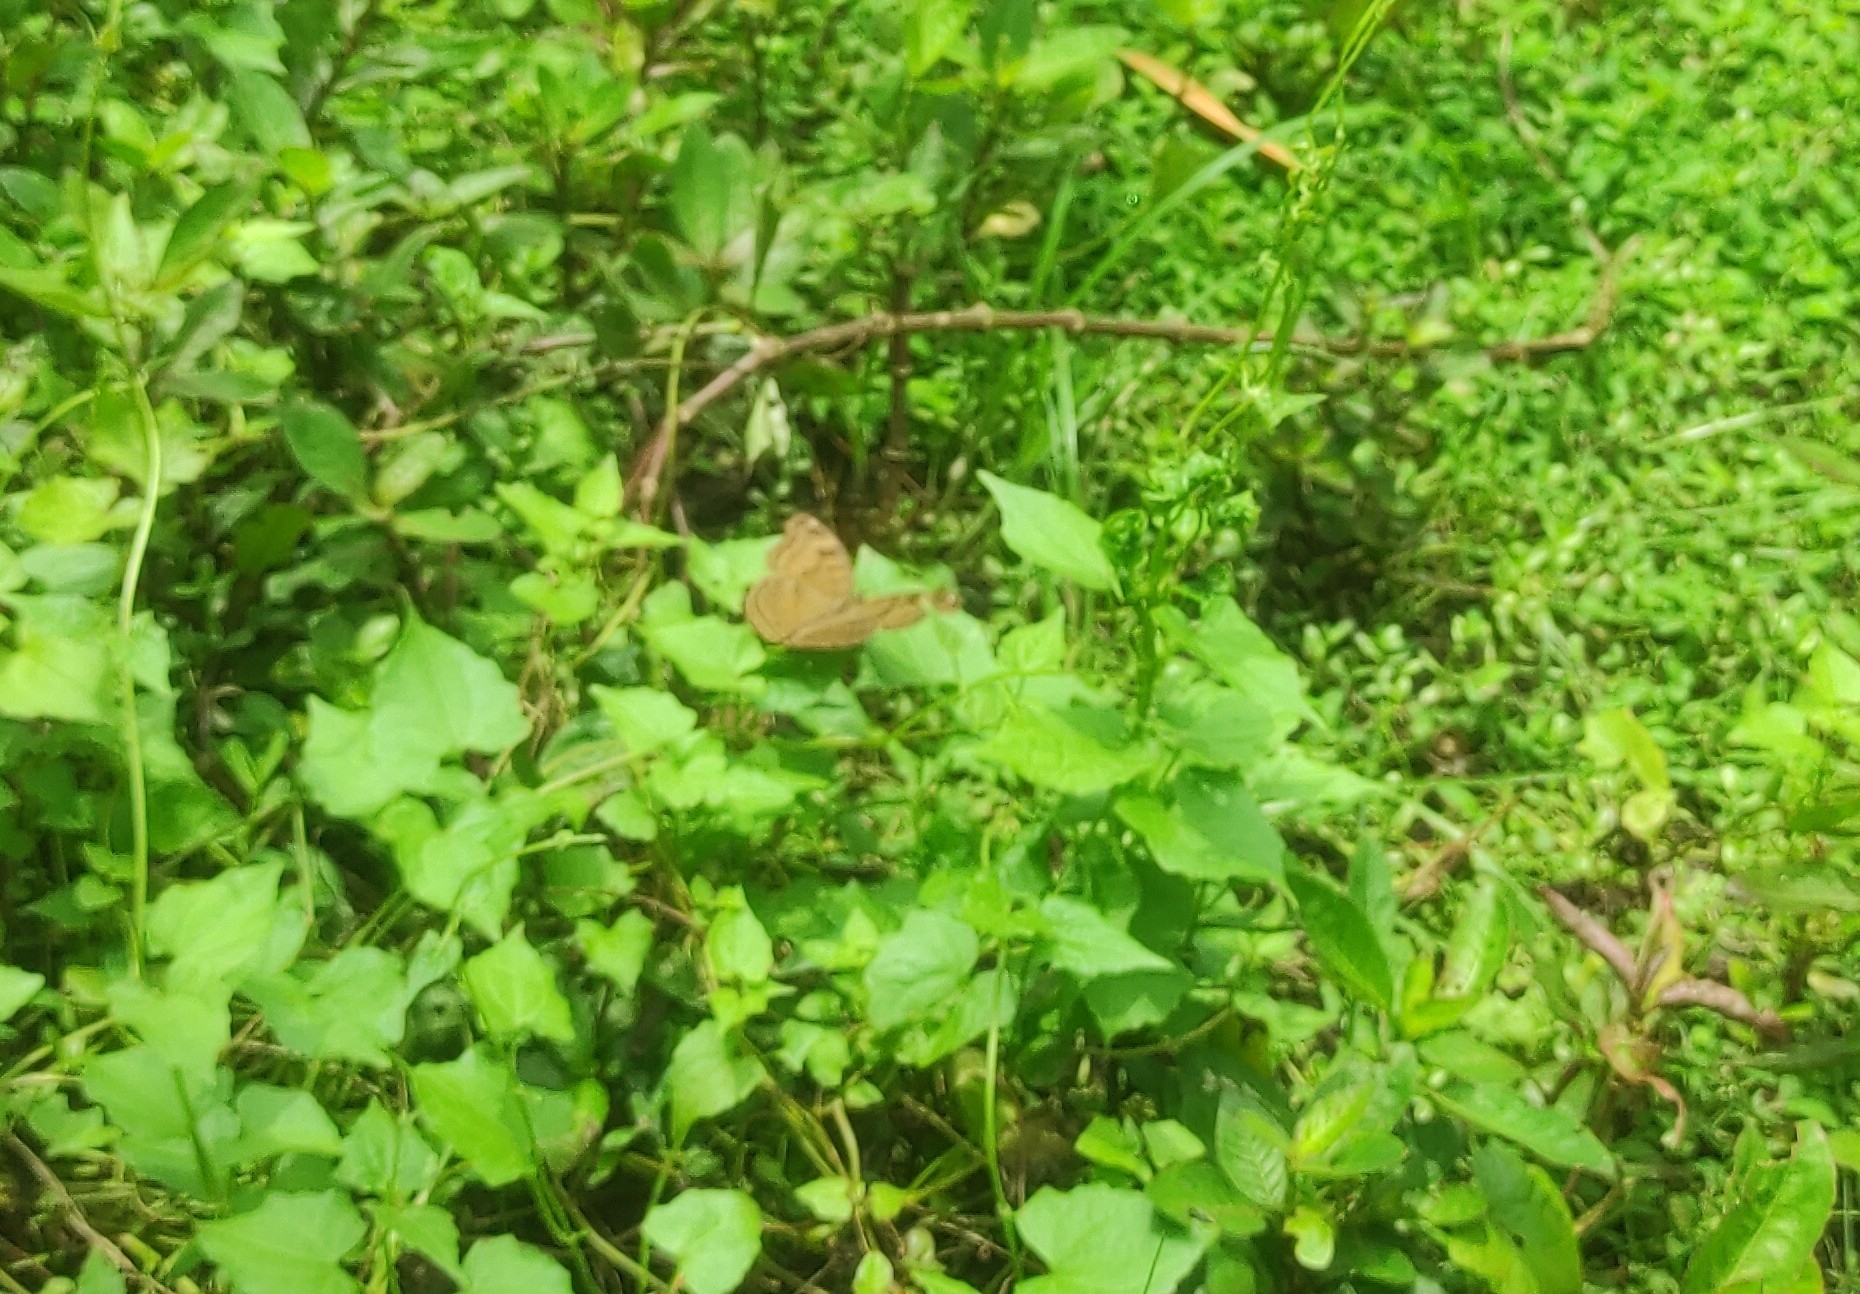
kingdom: Animalia
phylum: Arthropoda
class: Insecta
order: Lepidoptera
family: Nymphalidae
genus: Junonia
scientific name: Junonia iphita
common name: Chocolate pansy
